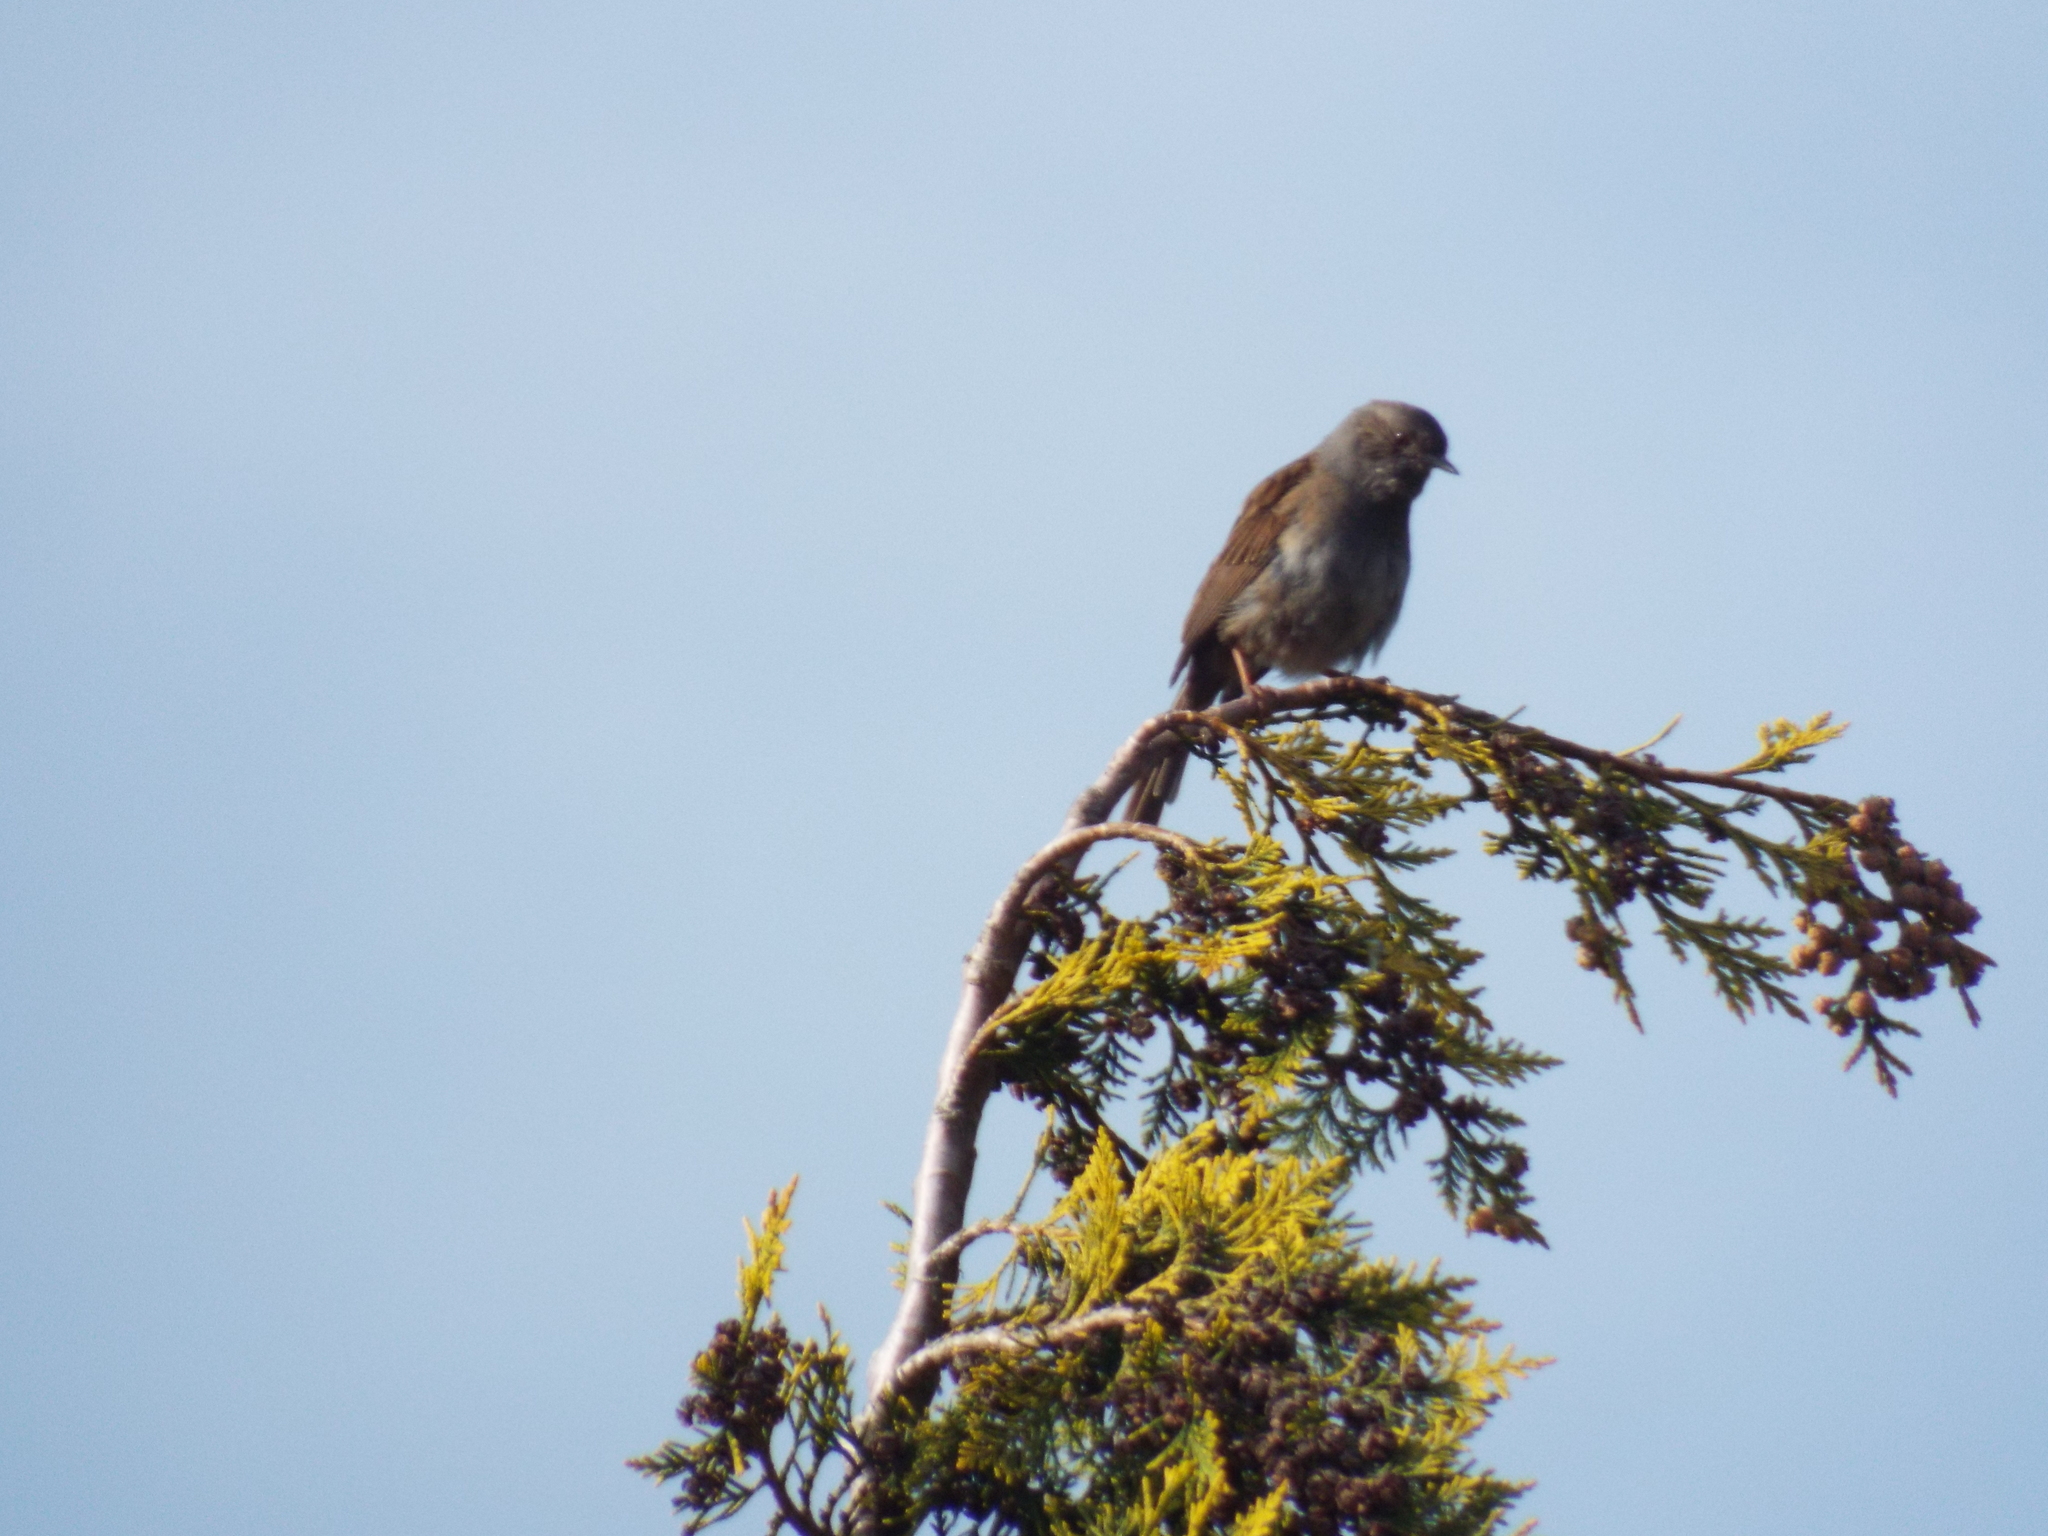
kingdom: Animalia
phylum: Chordata
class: Aves
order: Passeriformes
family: Prunellidae
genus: Prunella
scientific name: Prunella modularis
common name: Dunnock
